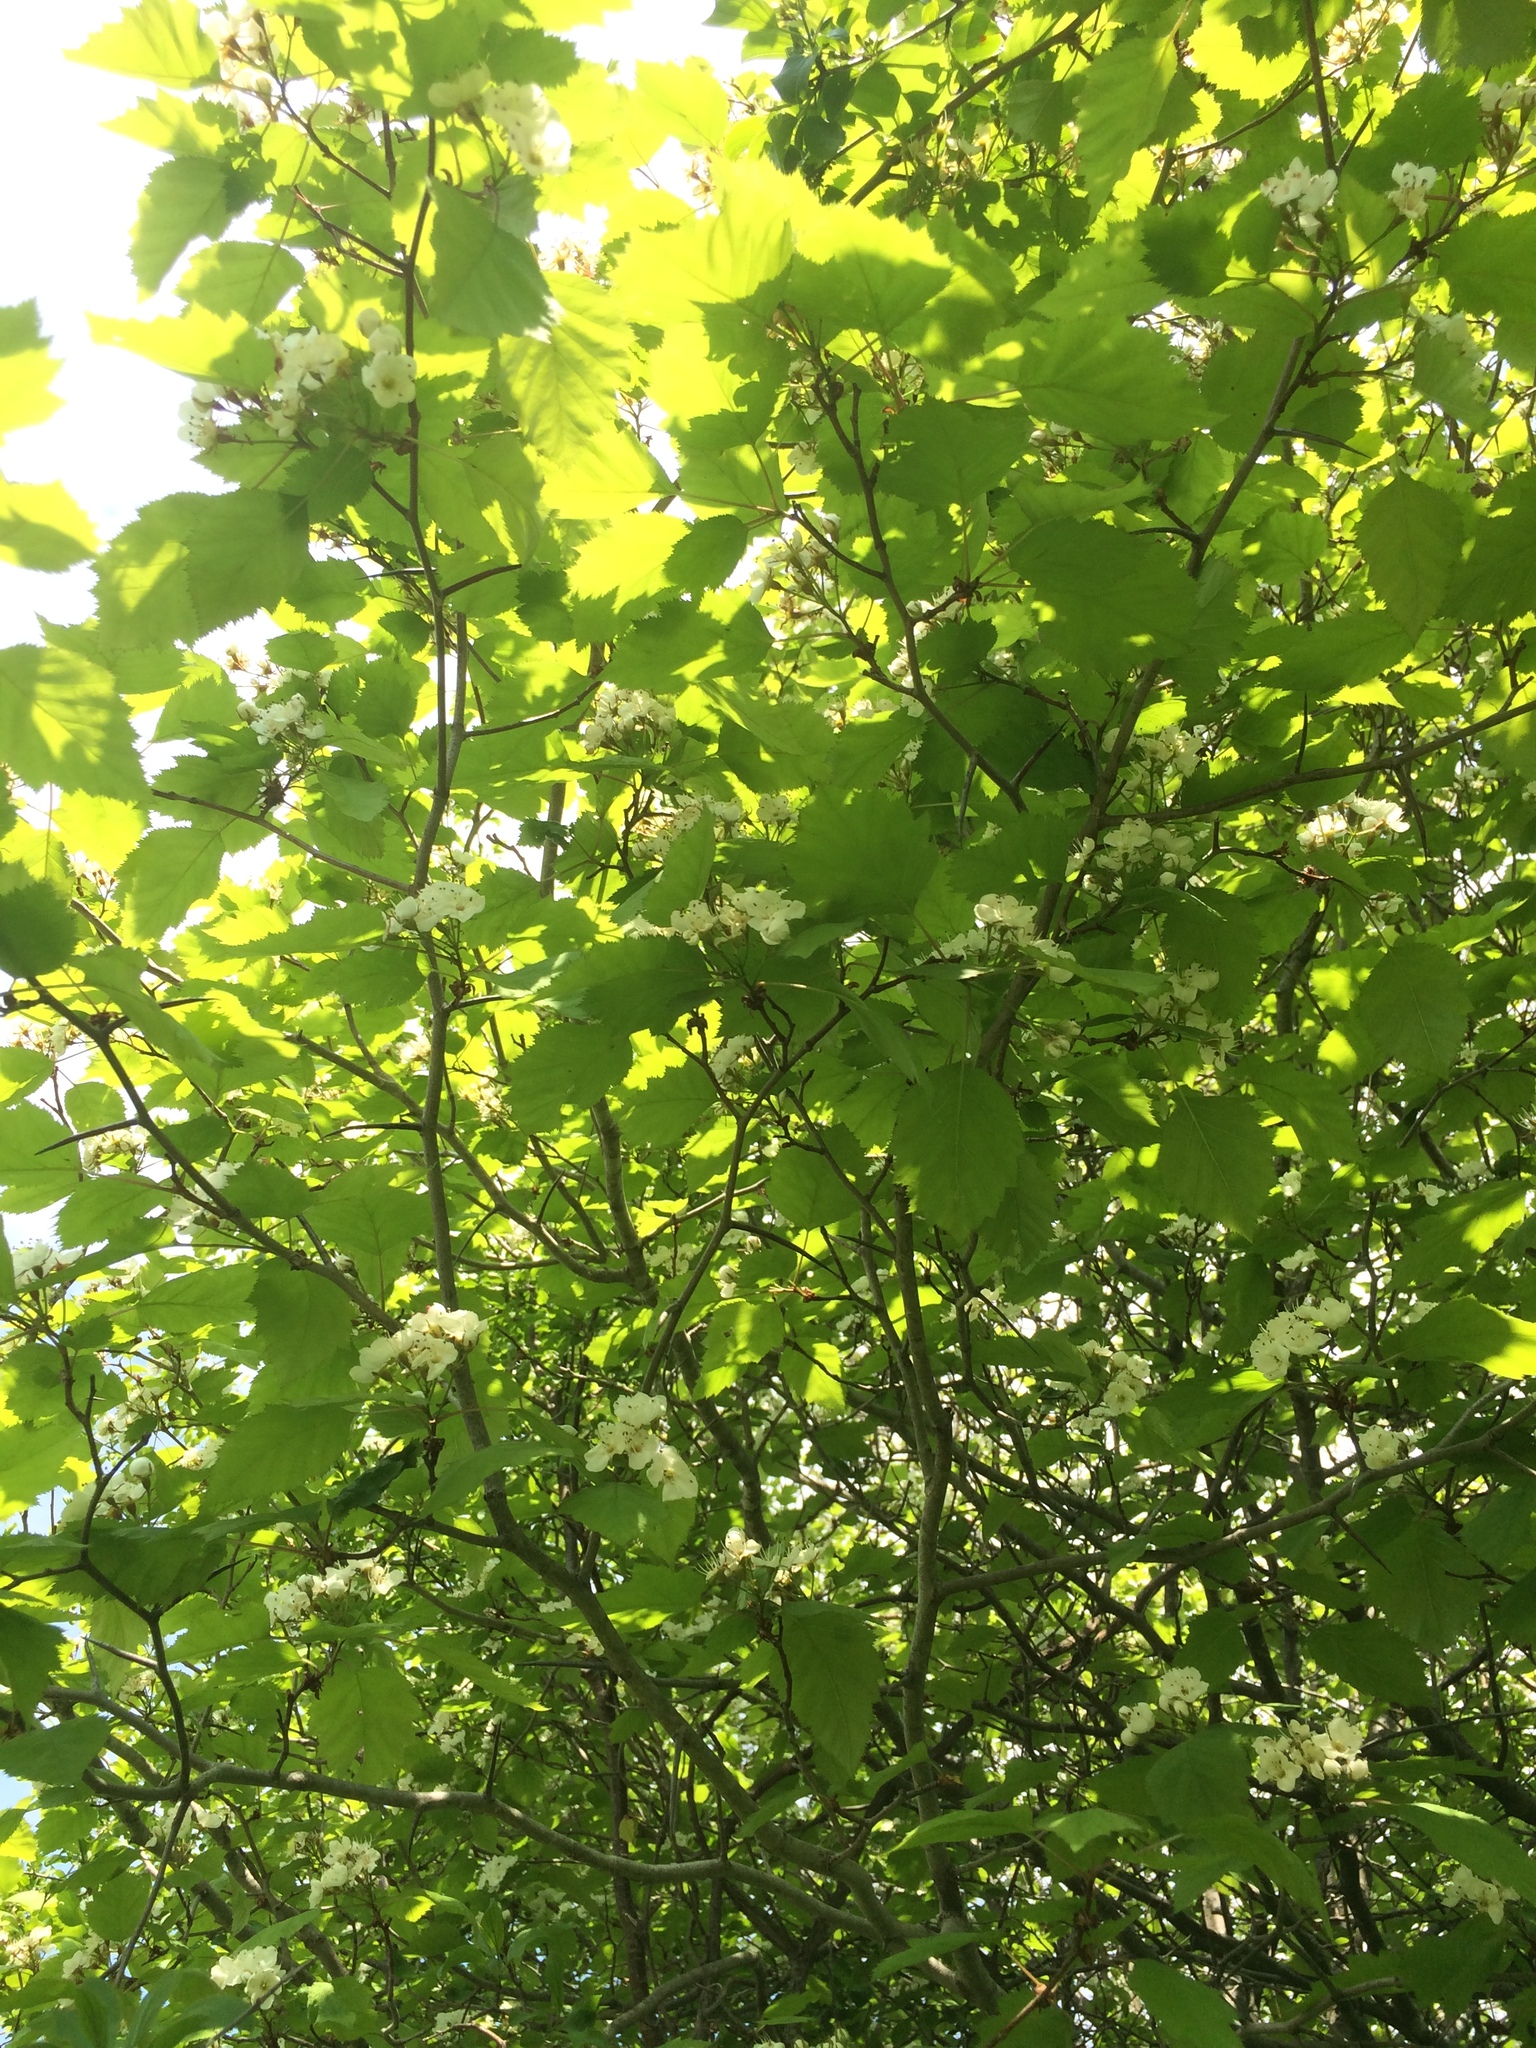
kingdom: Plantae
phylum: Tracheophyta
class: Magnoliopsida
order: Rosales
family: Rosaceae
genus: Crataegus
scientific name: Crataegus holmesiana
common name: Holmes' hawthorn
